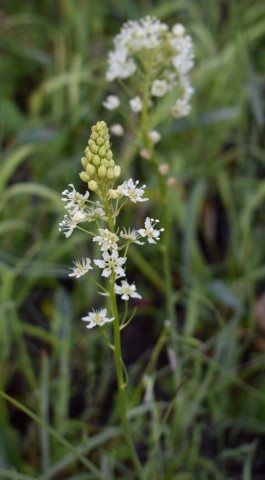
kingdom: Plantae
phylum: Tracheophyta
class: Liliopsida
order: Liliales
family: Melanthiaceae
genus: Toxicoscordion
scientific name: Toxicoscordion venenosum
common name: Meadow death camas
